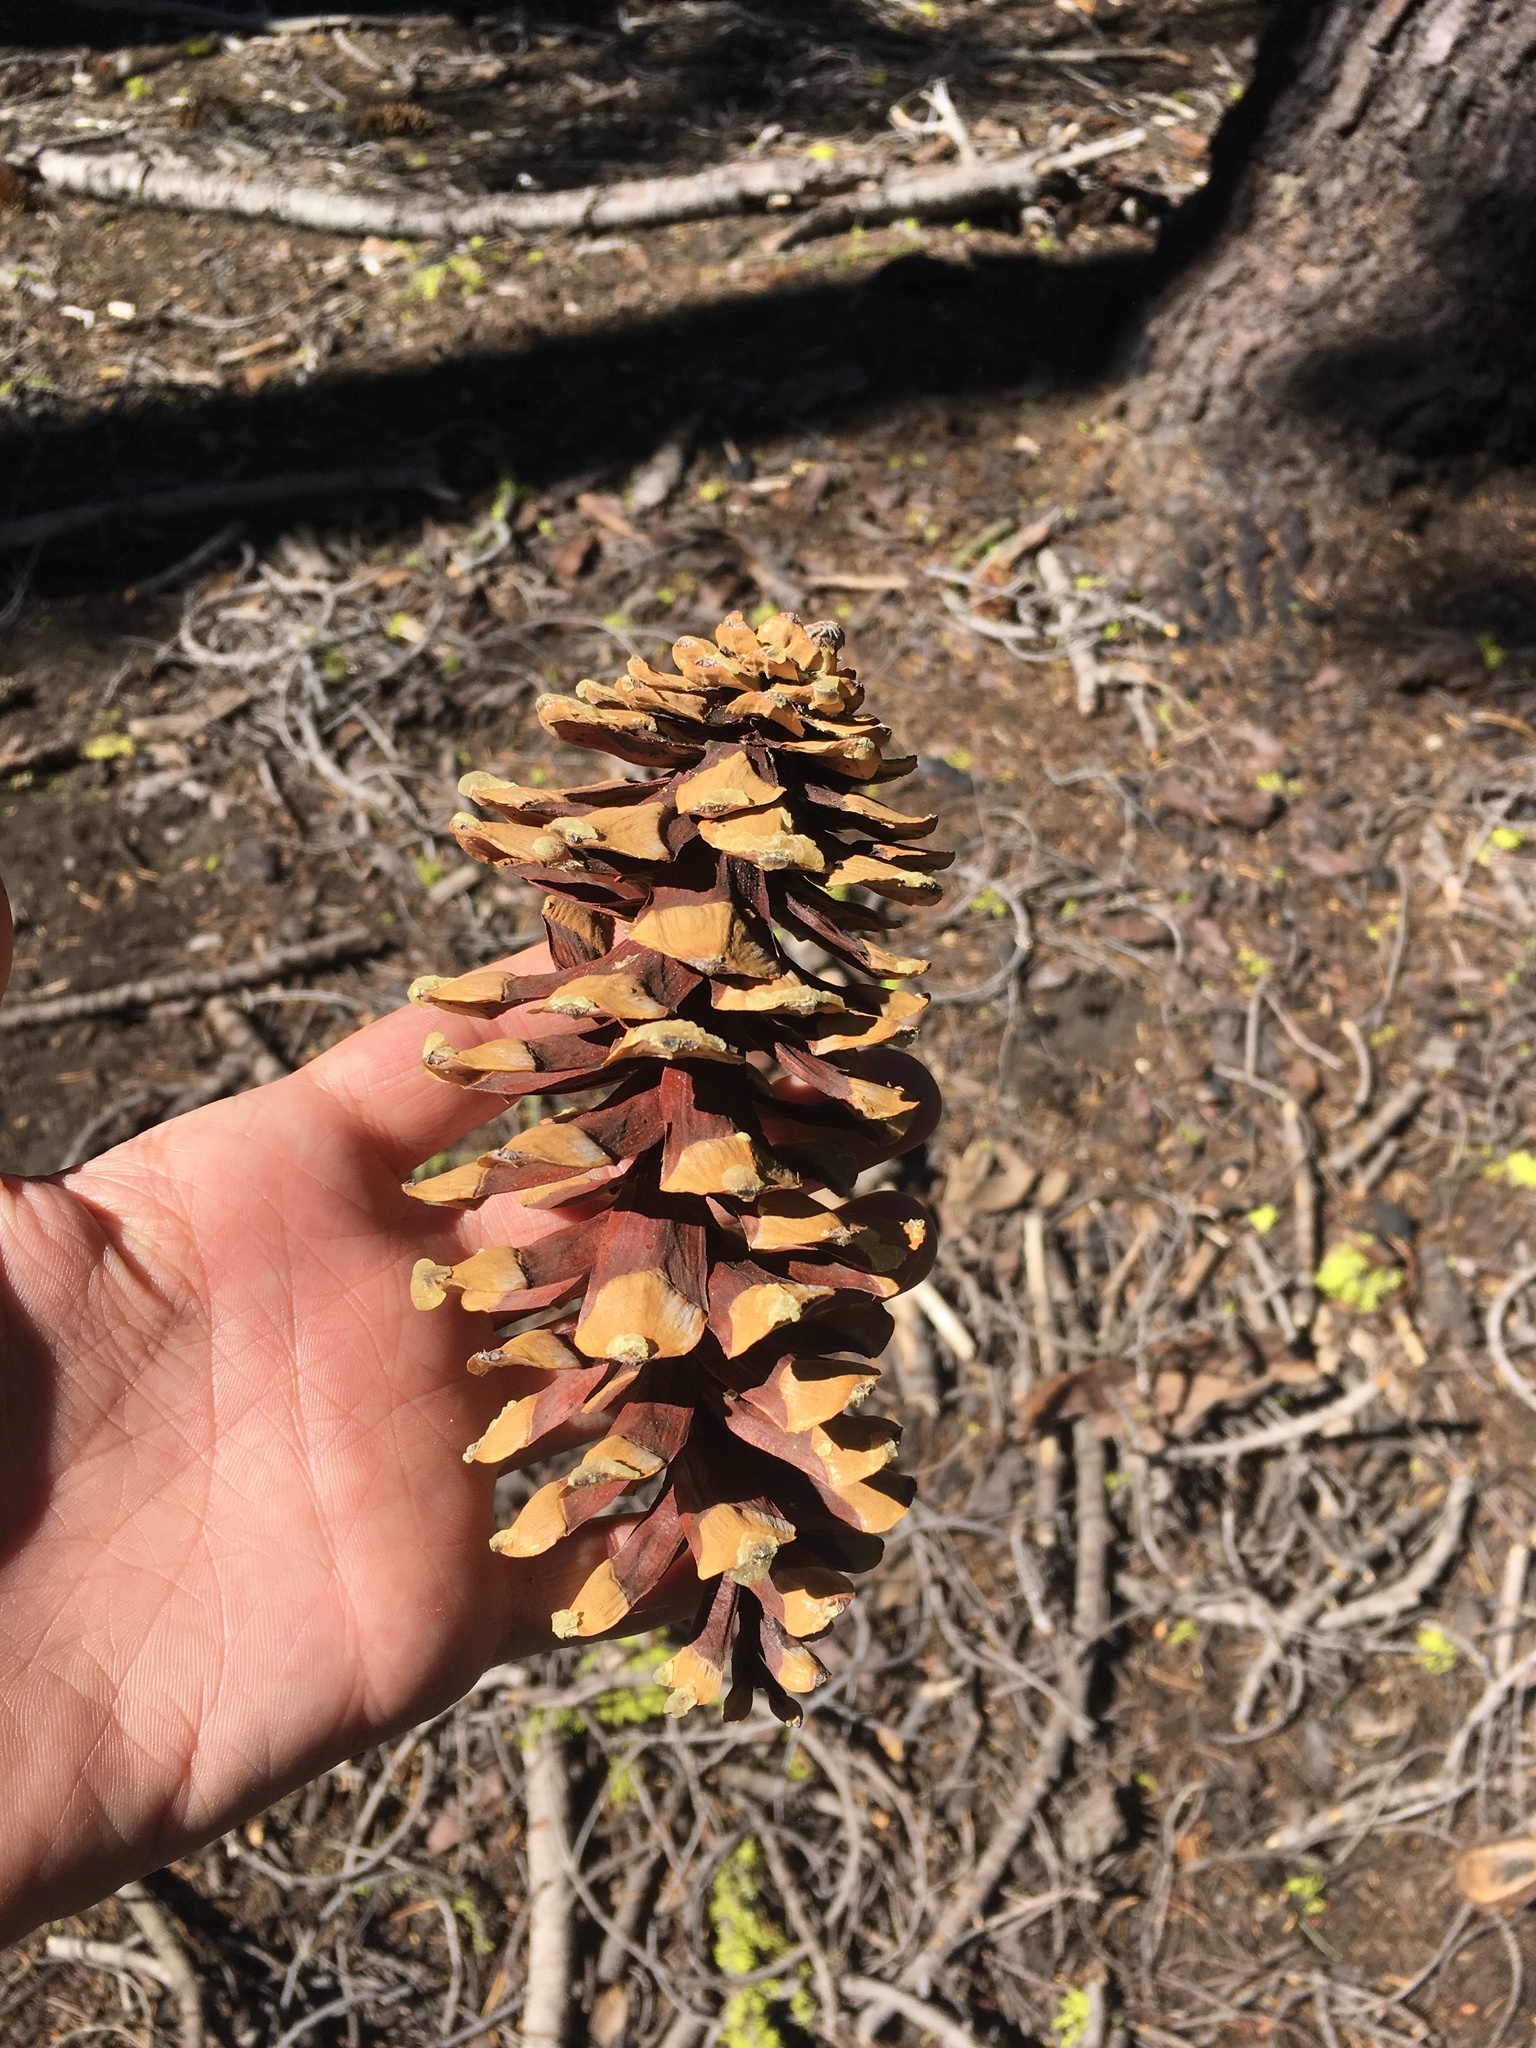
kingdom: Plantae
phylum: Tracheophyta
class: Pinopsida
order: Pinales
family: Pinaceae
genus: Pinus
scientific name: Pinus monticola
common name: Western white pine
